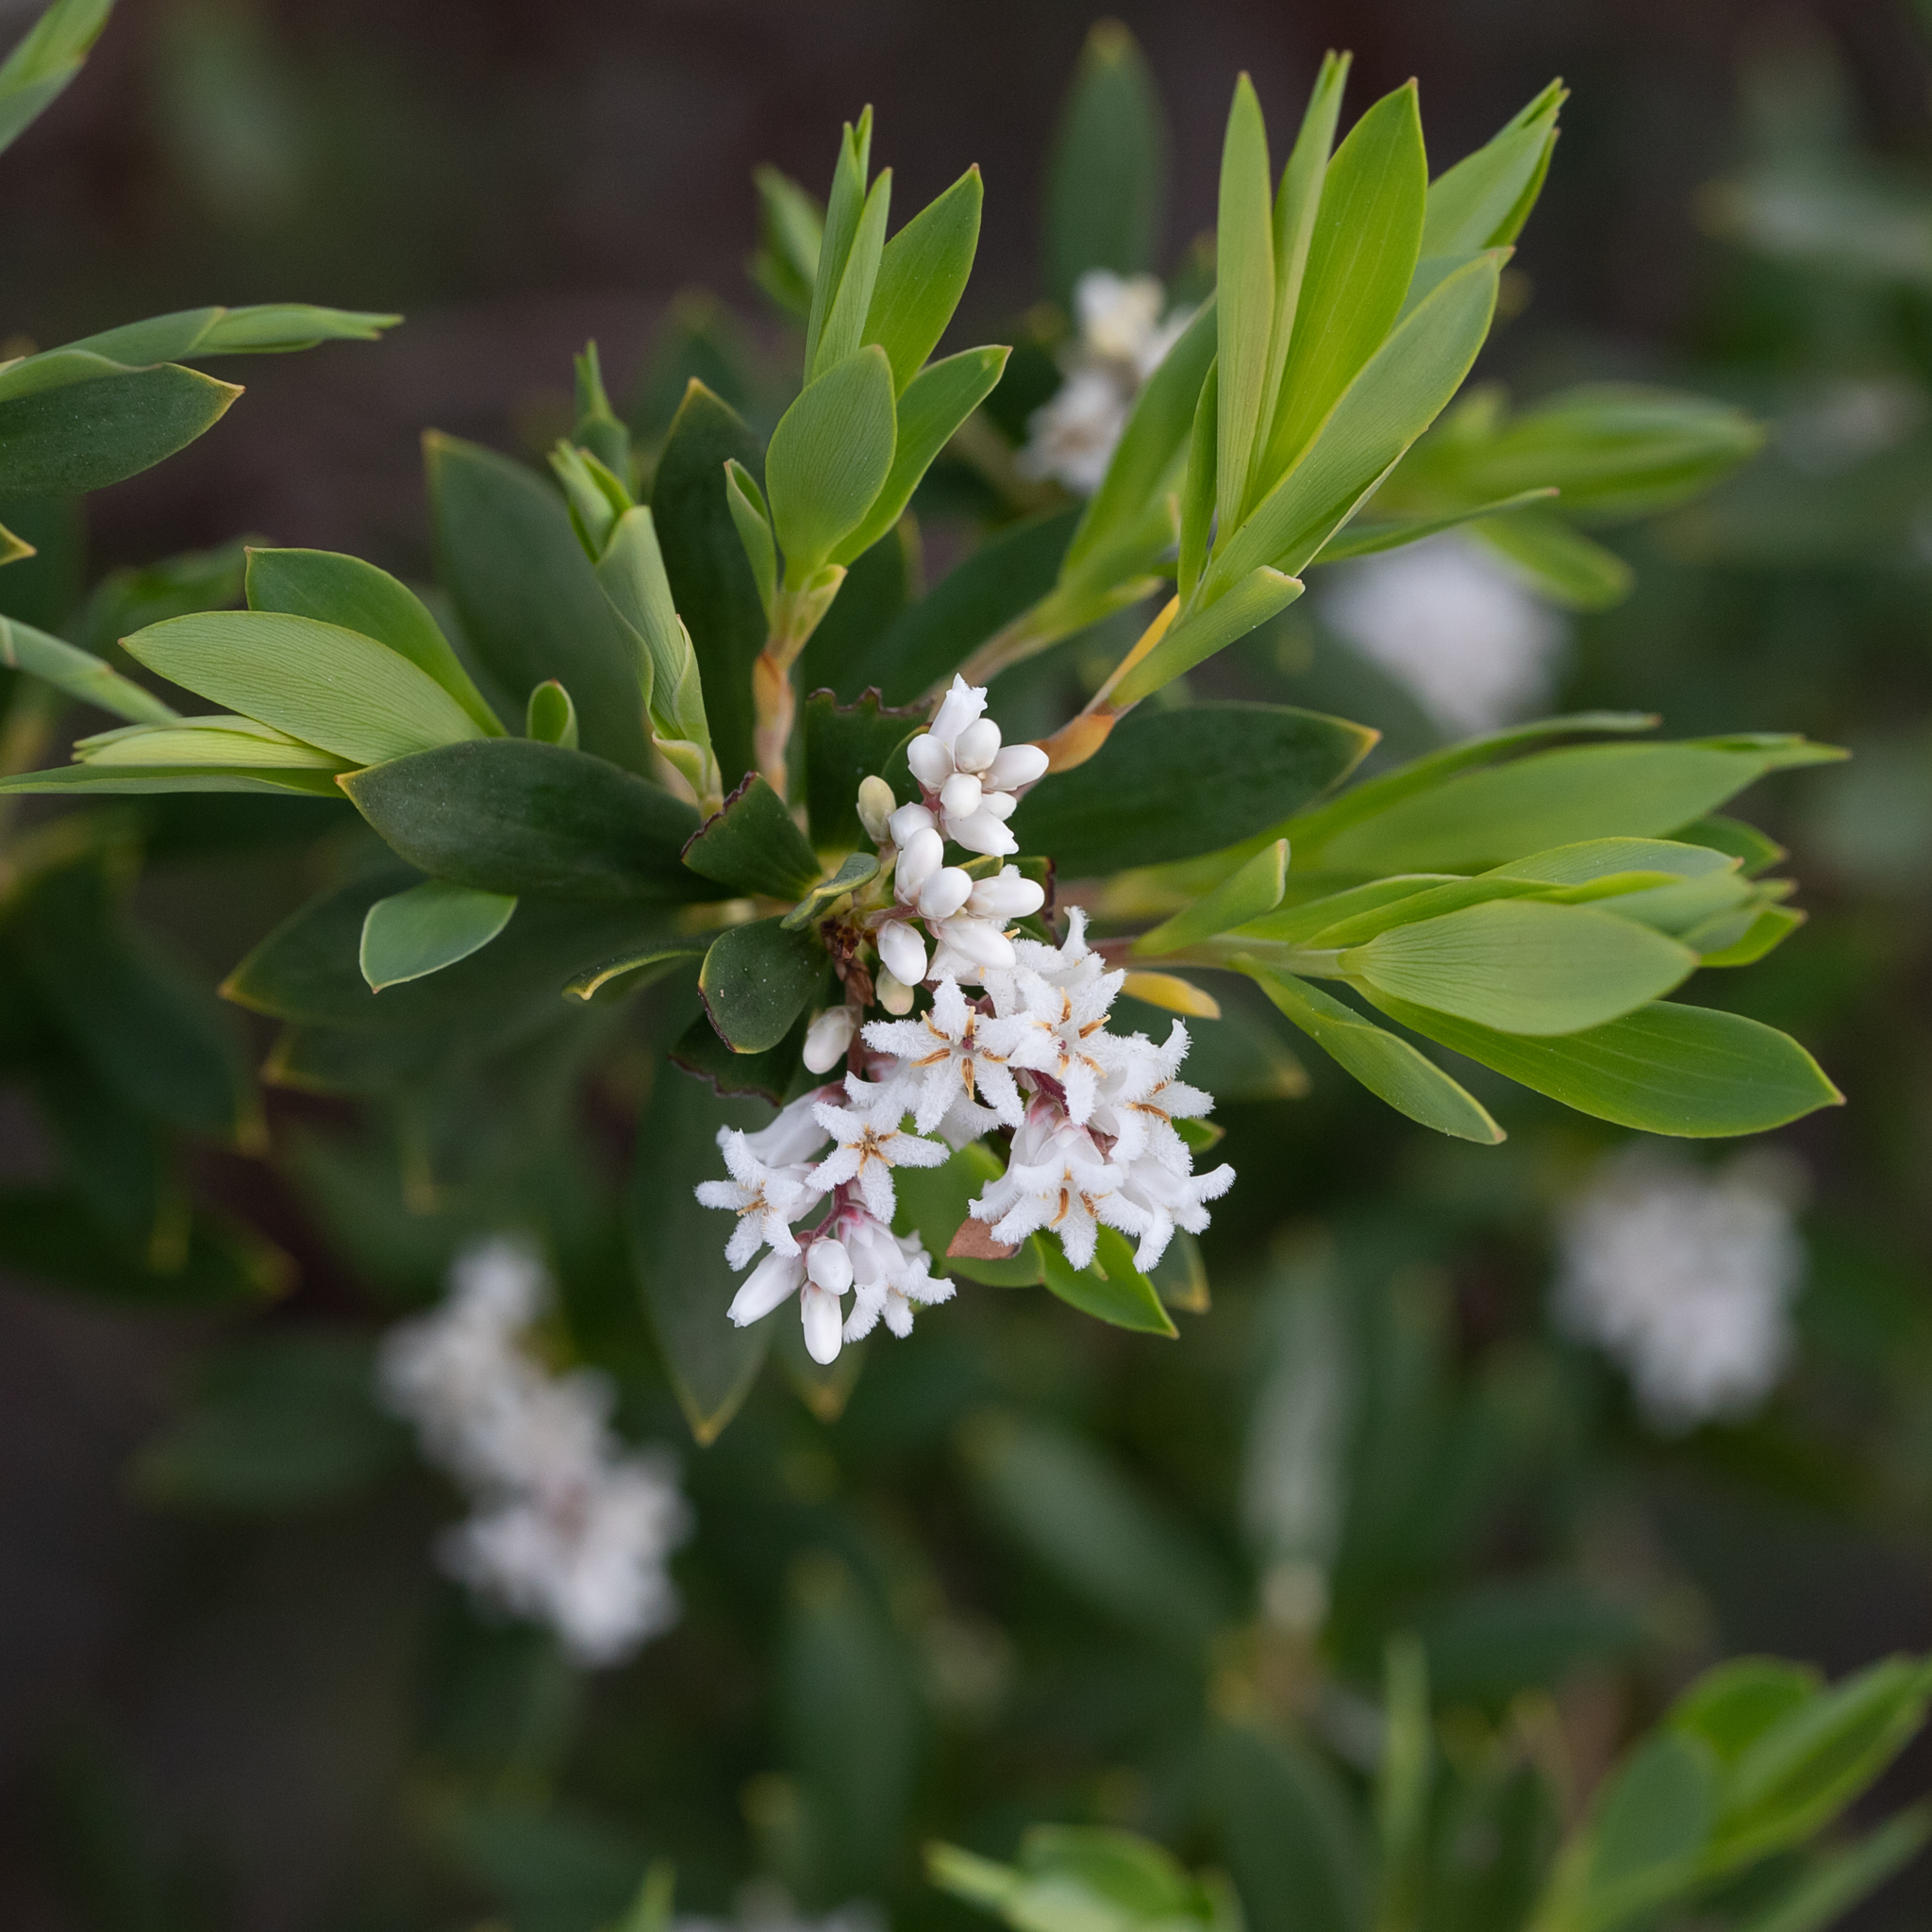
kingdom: Plantae
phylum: Tracheophyta
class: Magnoliopsida
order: Ericales
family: Ericaceae
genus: Leptecophylla
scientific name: Leptecophylla parvifolia
